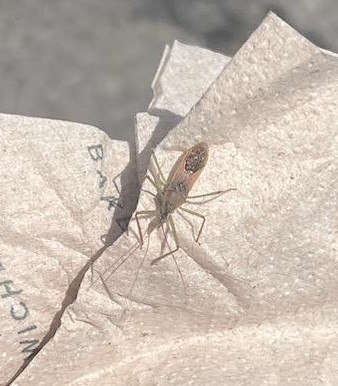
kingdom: Animalia
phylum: Arthropoda
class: Insecta
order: Hemiptera
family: Reduviidae
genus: Zelus
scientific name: Zelus renardii
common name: Assassin bug
